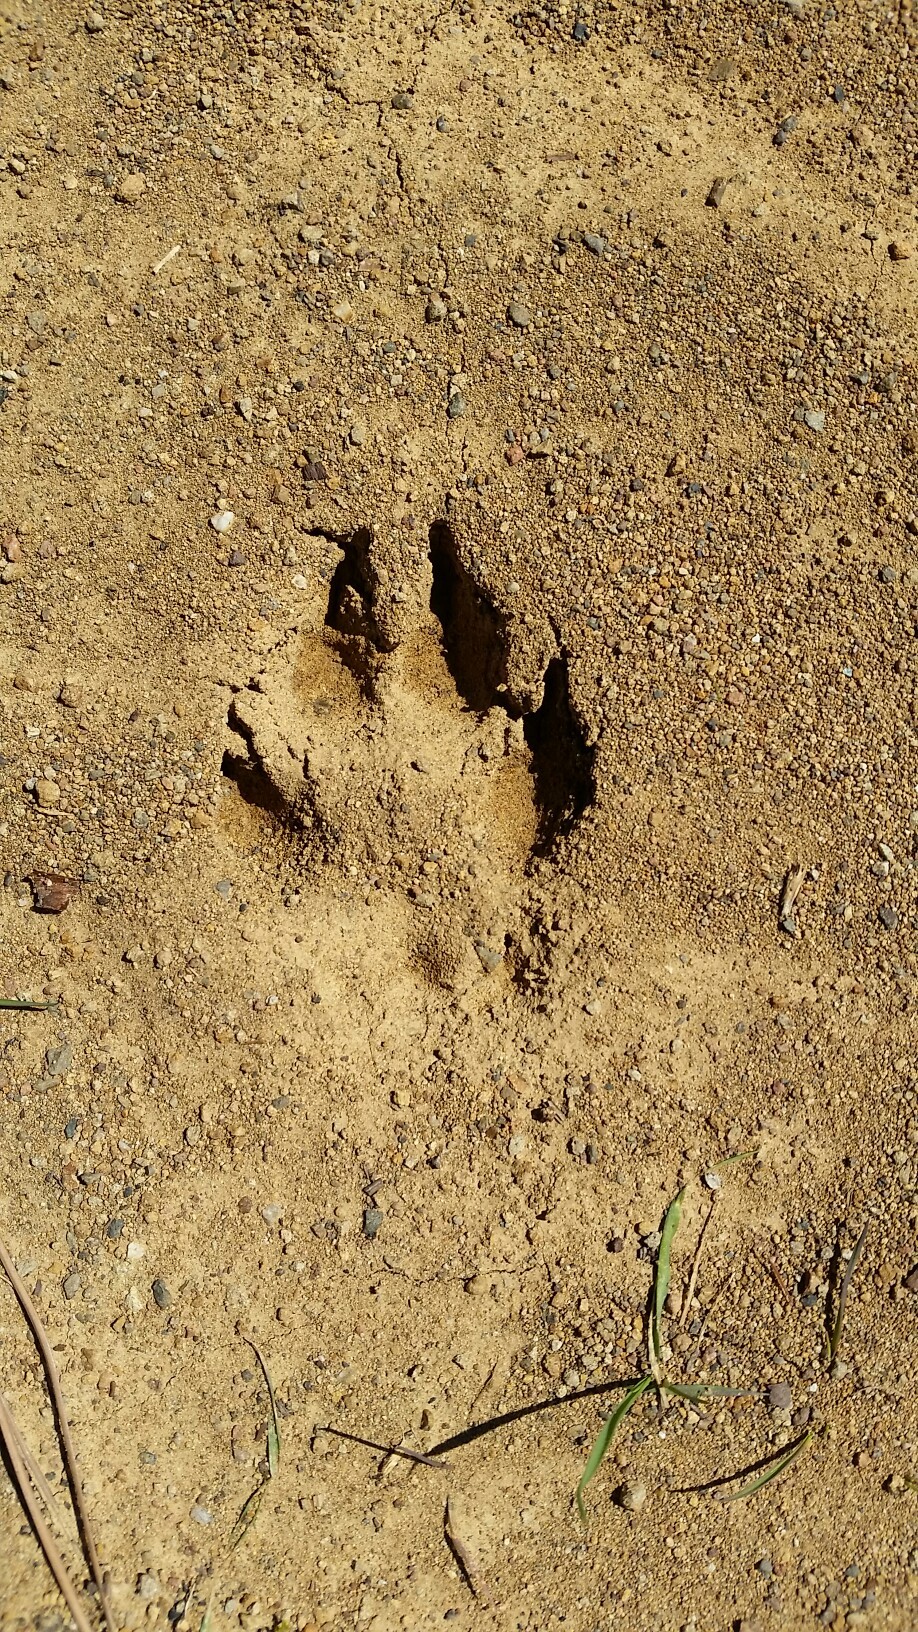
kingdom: Animalia
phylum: Chordata
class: Mammalia
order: Carnivora
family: Canidae
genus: Canis
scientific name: Canis latrans
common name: Coyote
